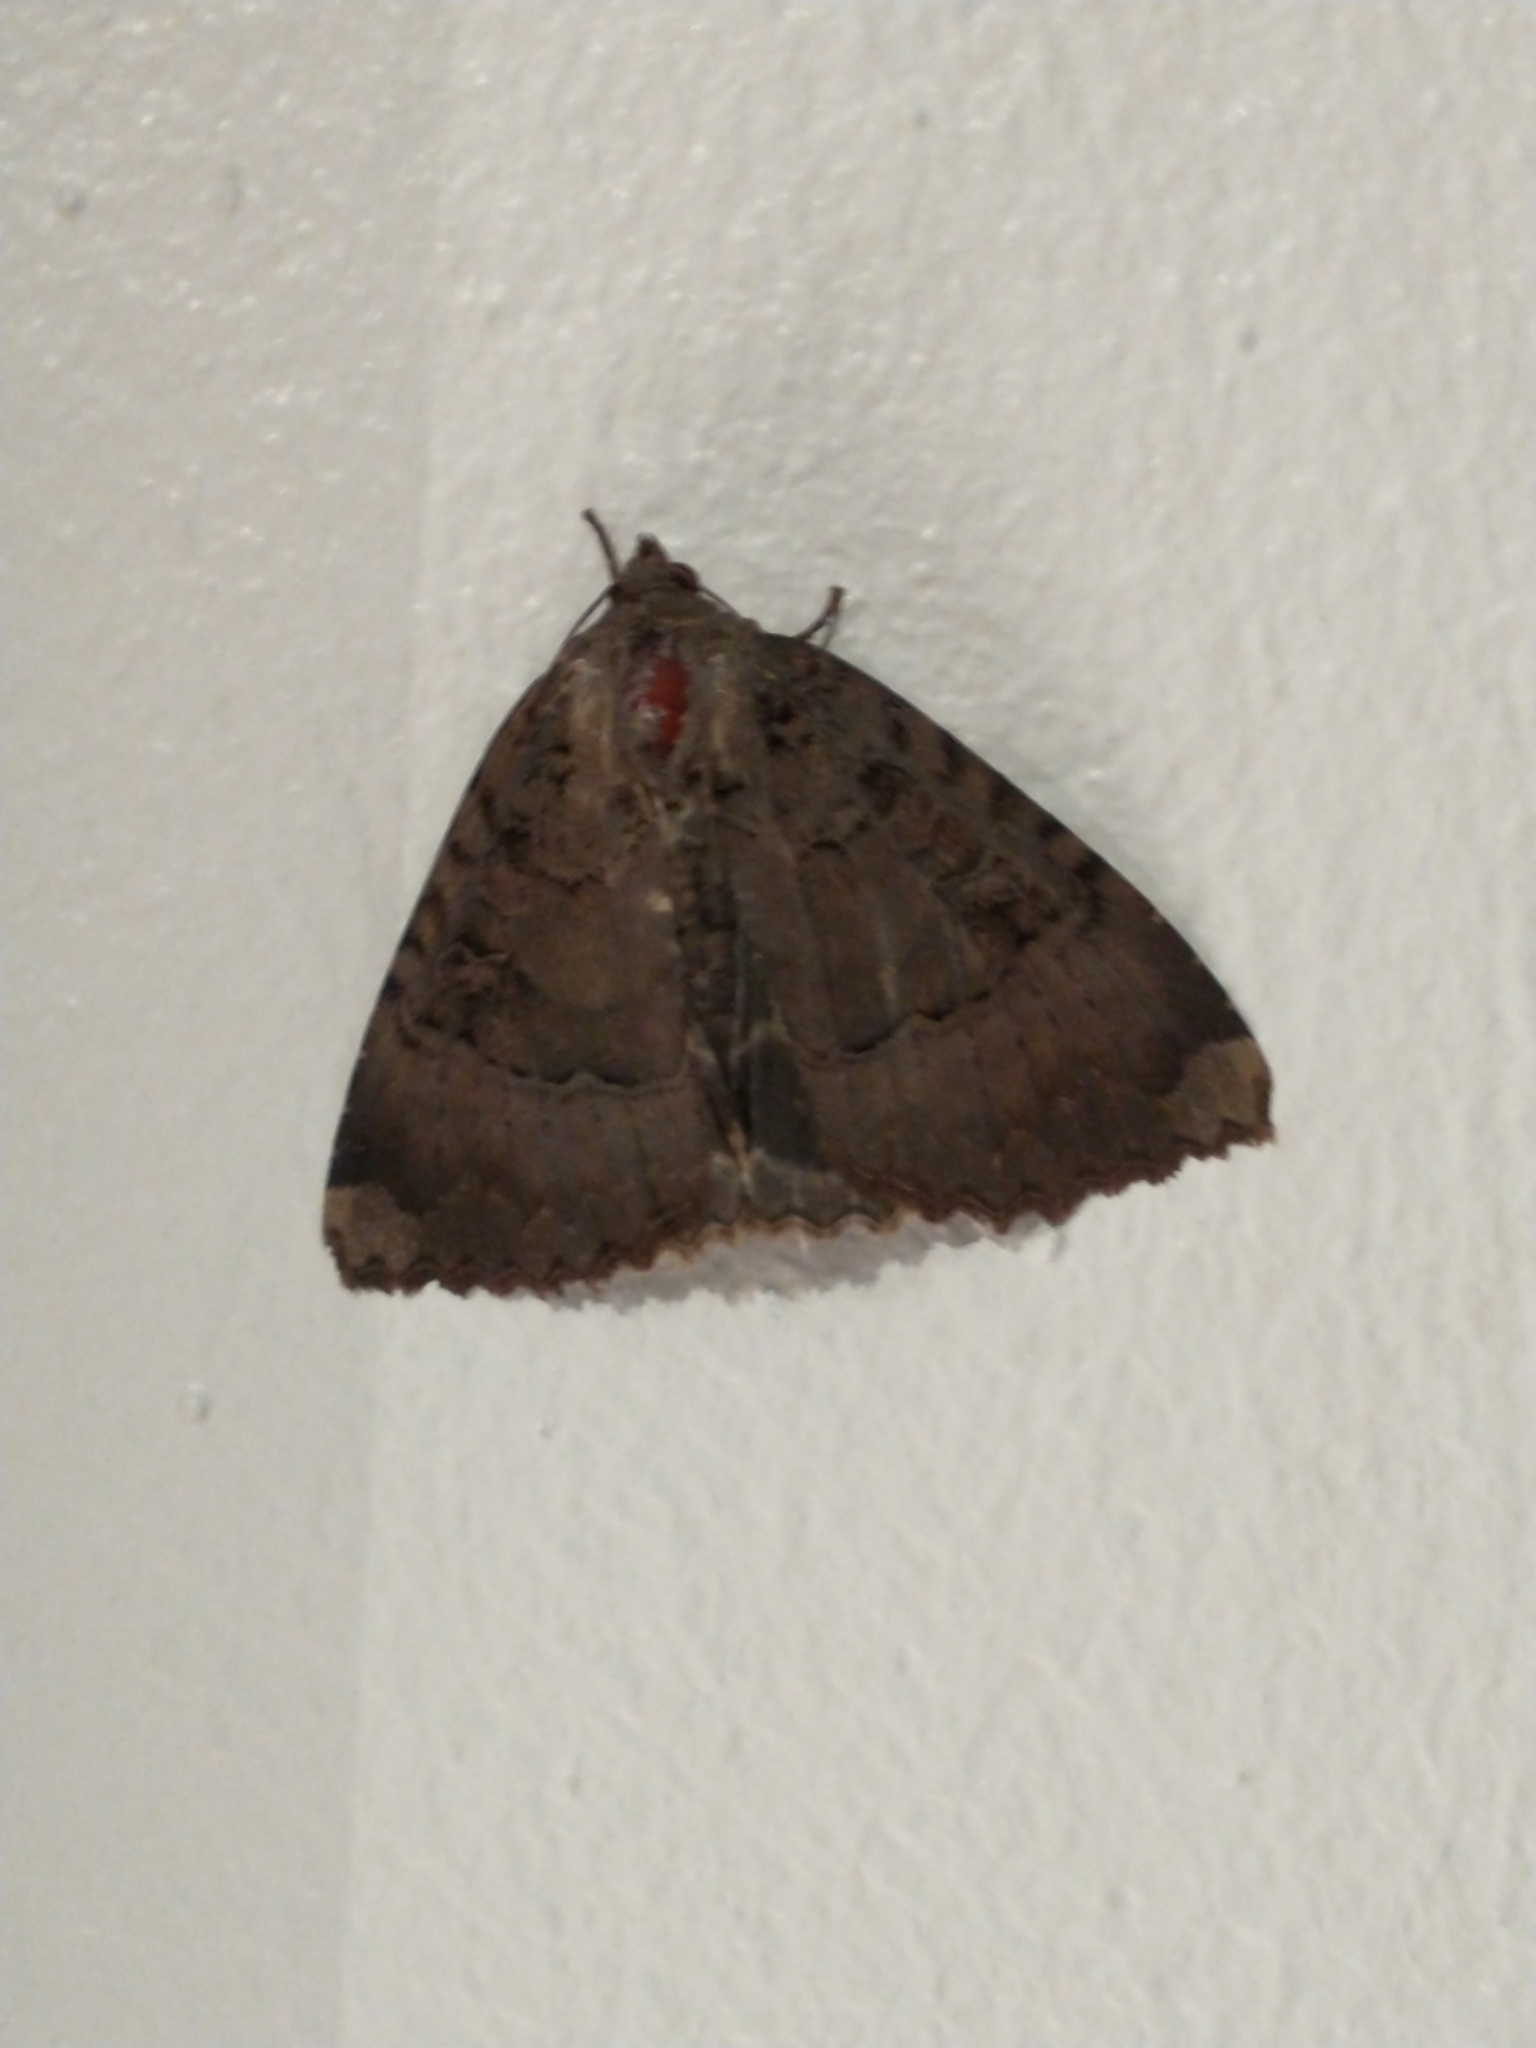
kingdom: Animalia
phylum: Arthropoda
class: Insecta
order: Lepidoptera
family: Noctuidae
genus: Mormo
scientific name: Mormo maura
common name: Old lady
